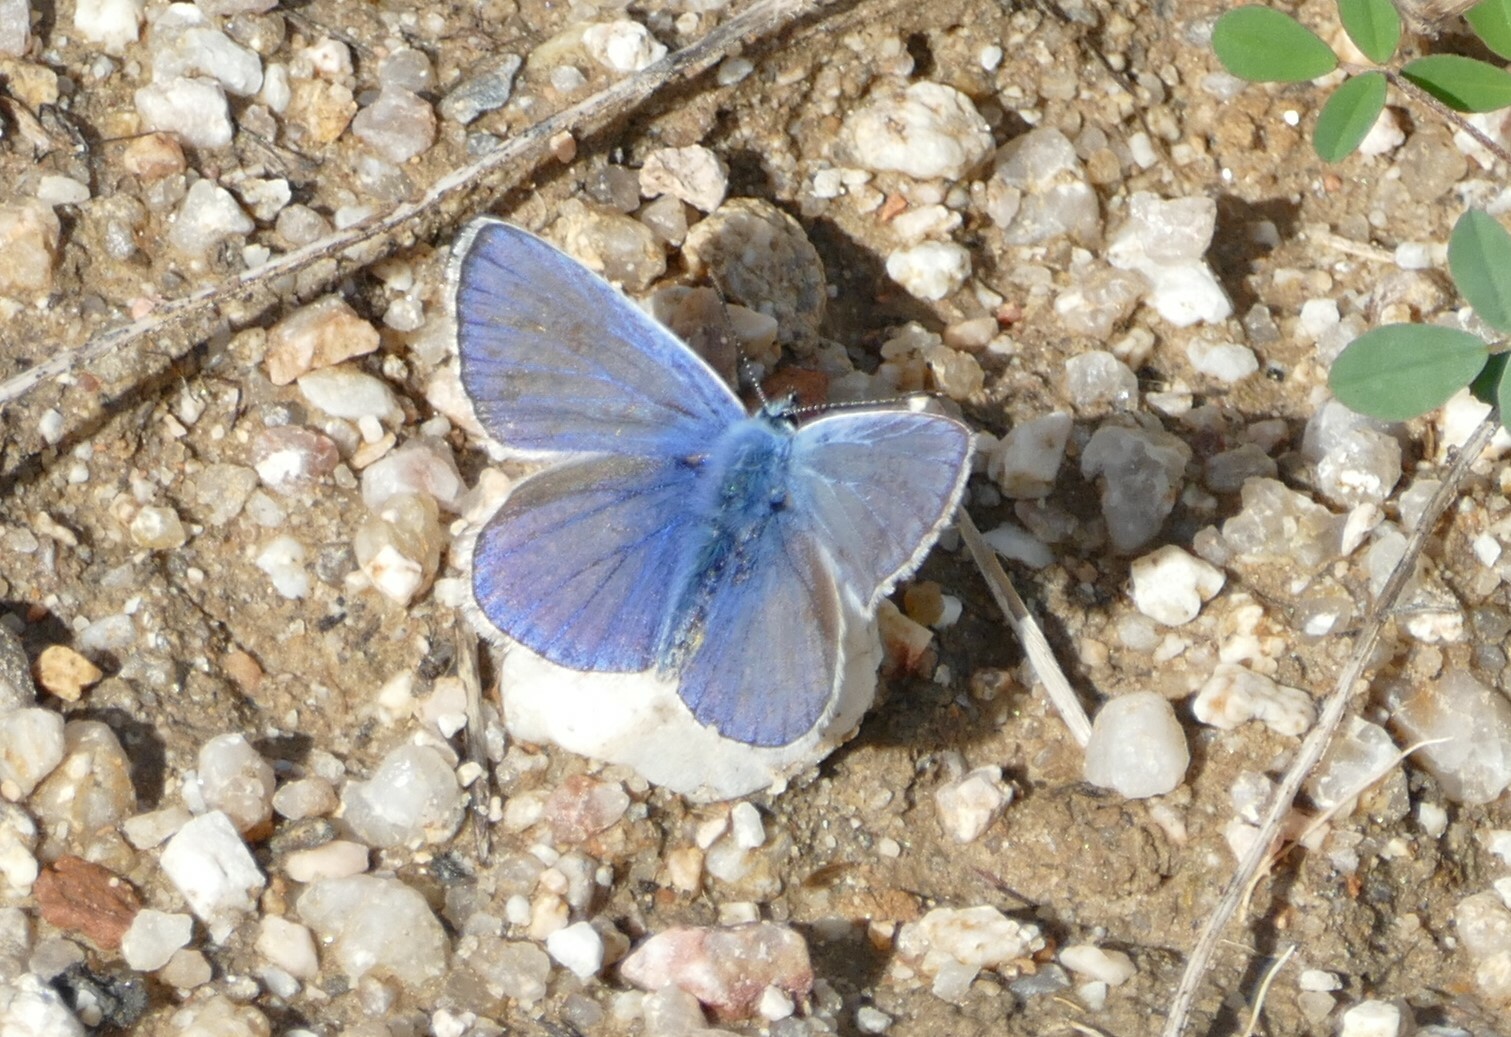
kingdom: Animalia
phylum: Arthropoda
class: Insecta
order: Lepidoptera
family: Lycaenidae
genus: Polyommatus
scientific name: Polyommatus icarus
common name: Common blue
